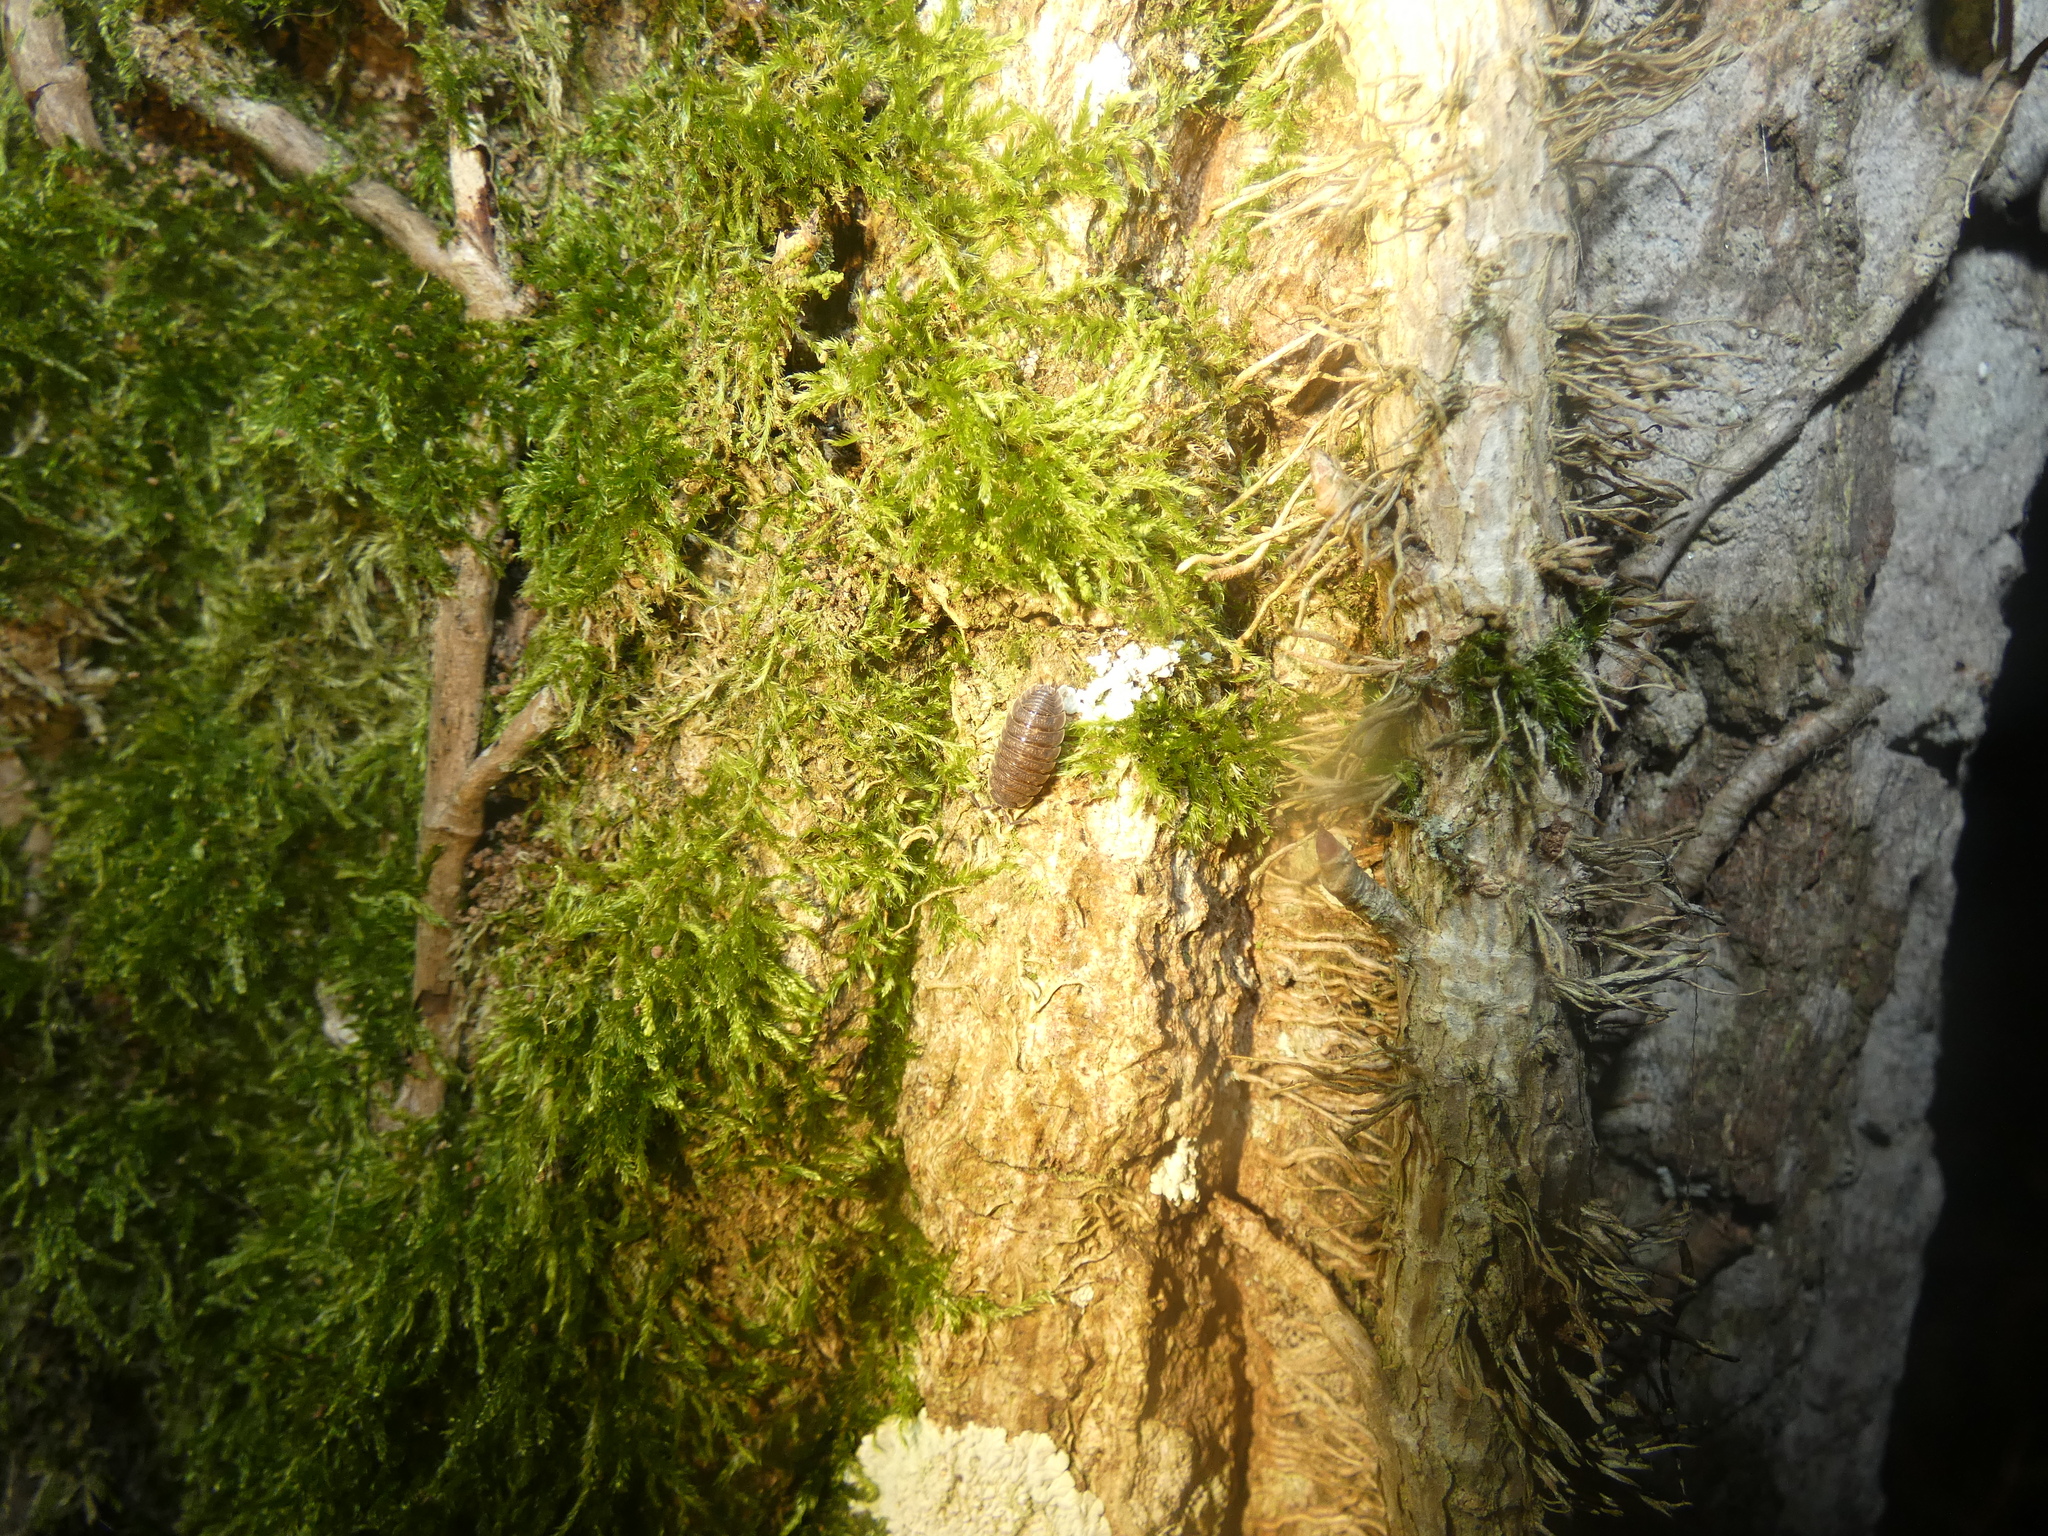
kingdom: Animalia
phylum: Arthropoda
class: Malacostraca
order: Isopoda
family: Porcellionidae
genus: Porcellio
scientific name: Porcellio scaber
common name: Common rough woodlouse
